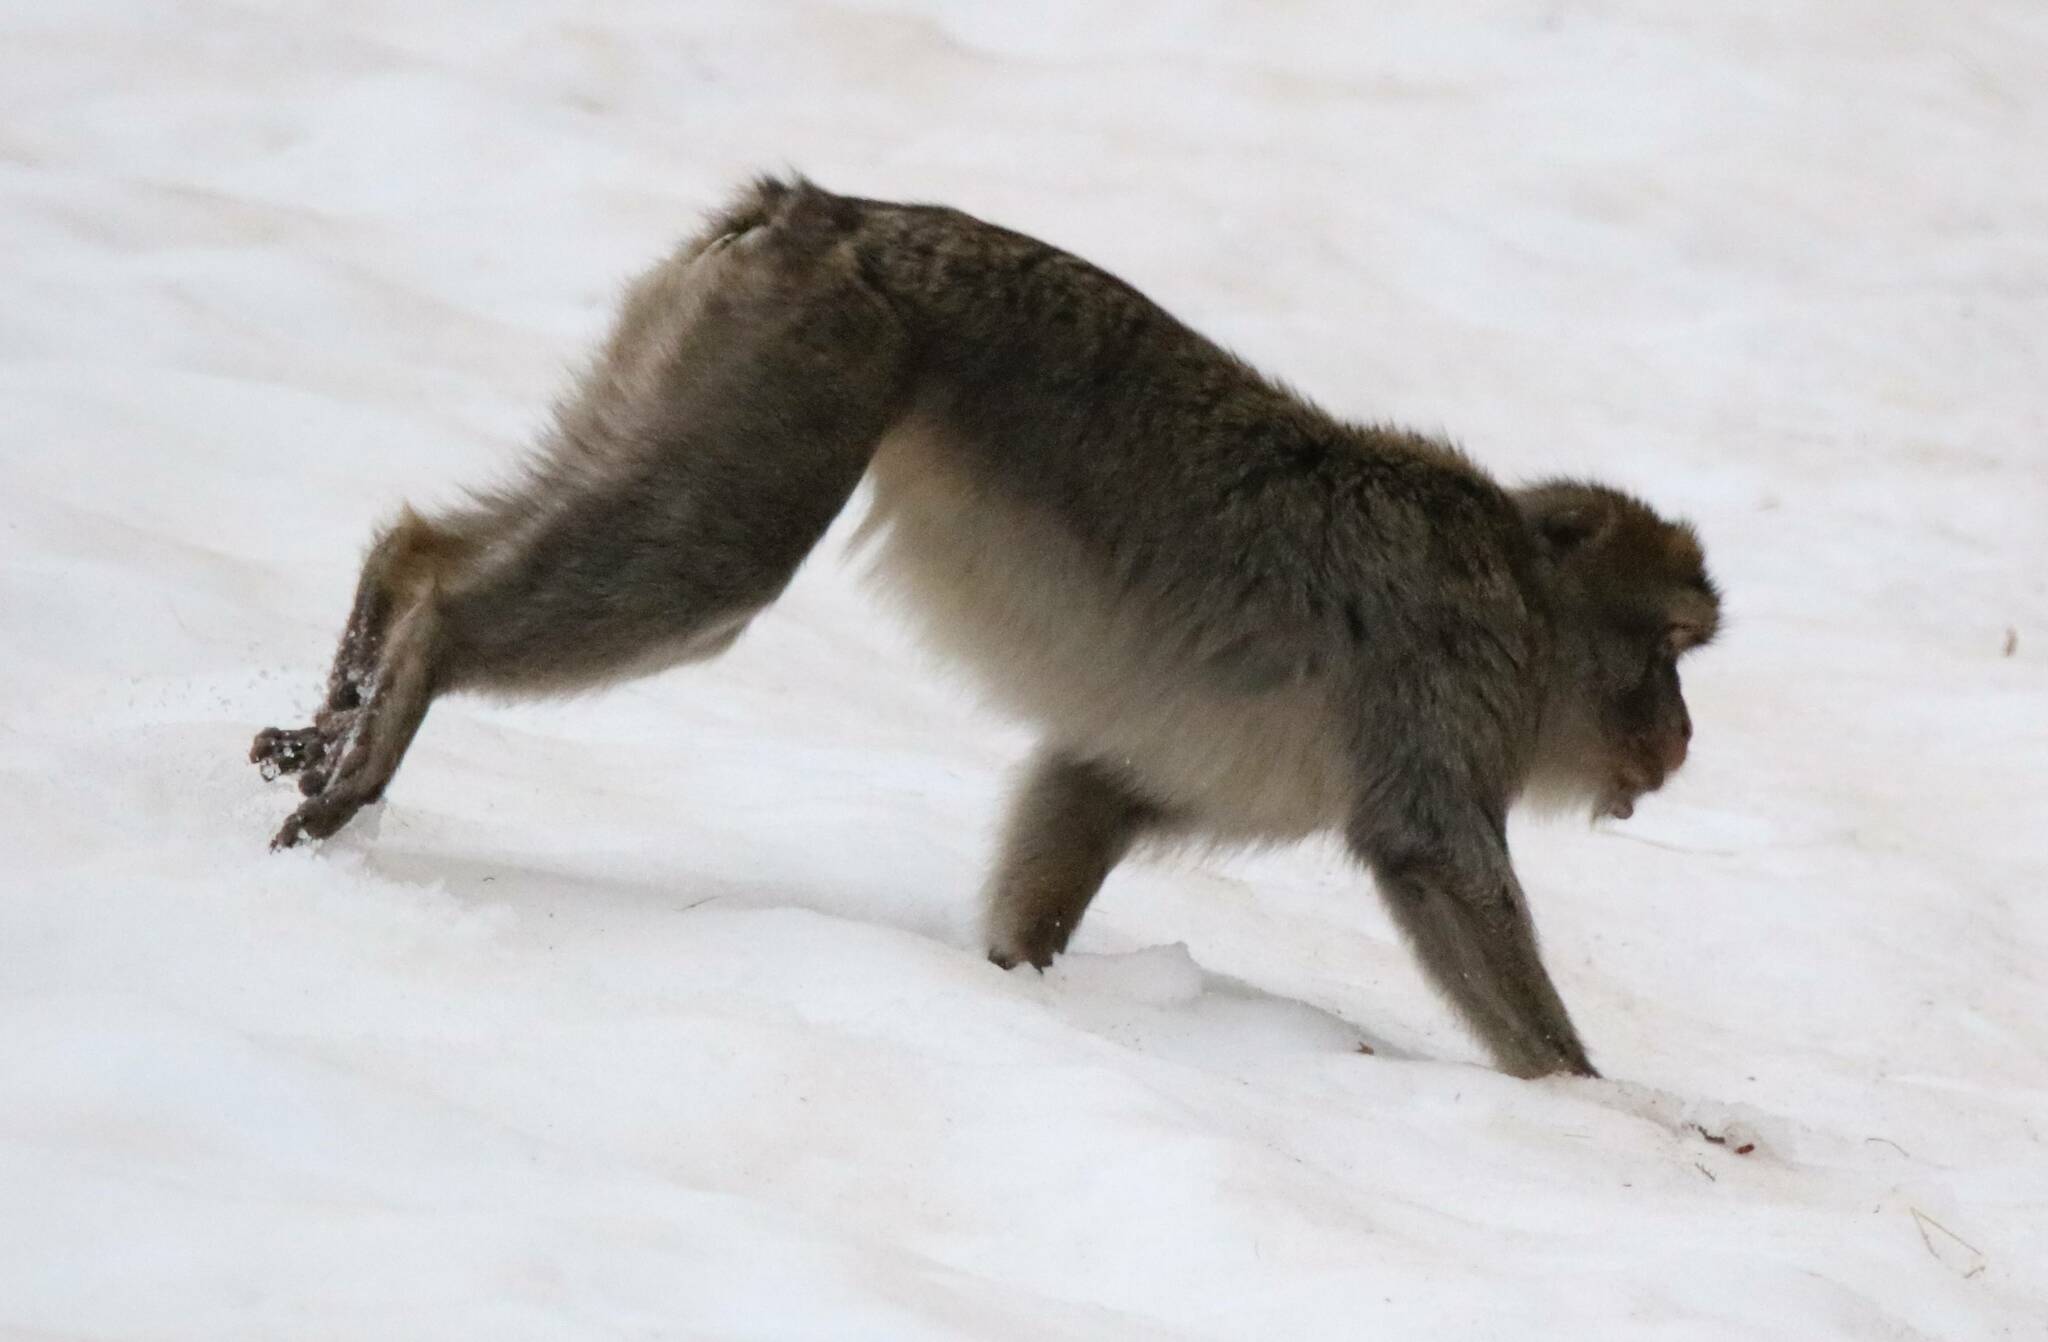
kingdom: Animalia
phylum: Chordata
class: Mammalia
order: Primates
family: Cercopithecidae
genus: Macaca
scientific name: Macaca sylvanus
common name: Barbary macaque
